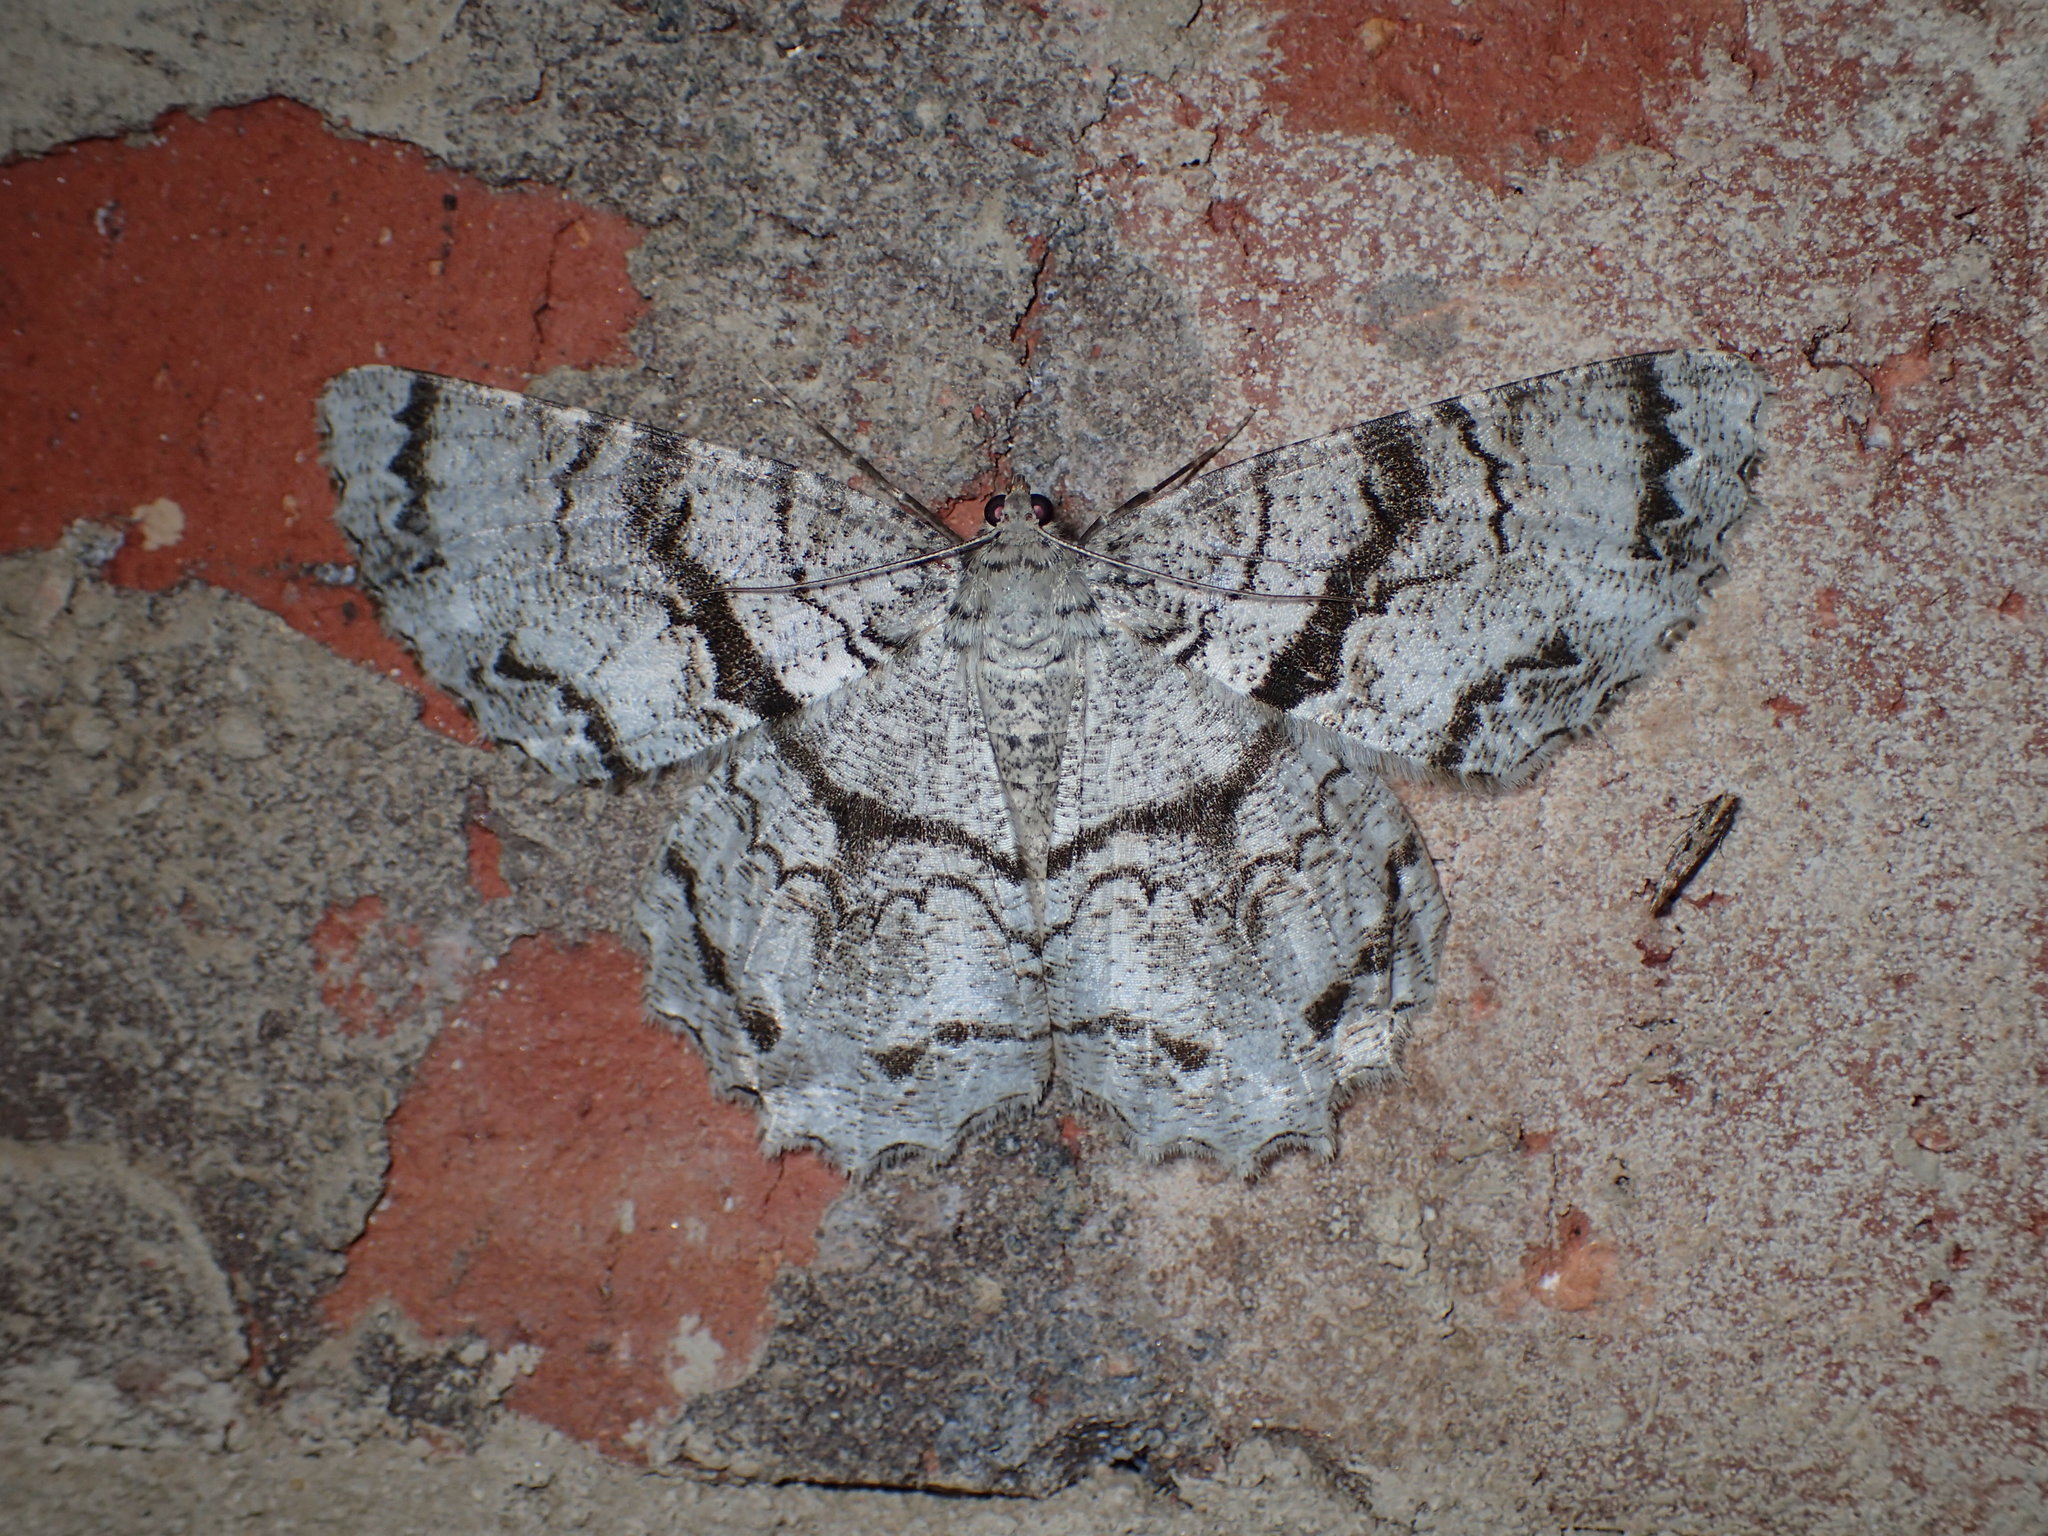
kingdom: Animalia
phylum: Arthropoda
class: Insecta
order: Lepidoptera
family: Geometridae
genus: Epimecis
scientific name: Epimecis hortaria
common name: Tulip-tree beauty
